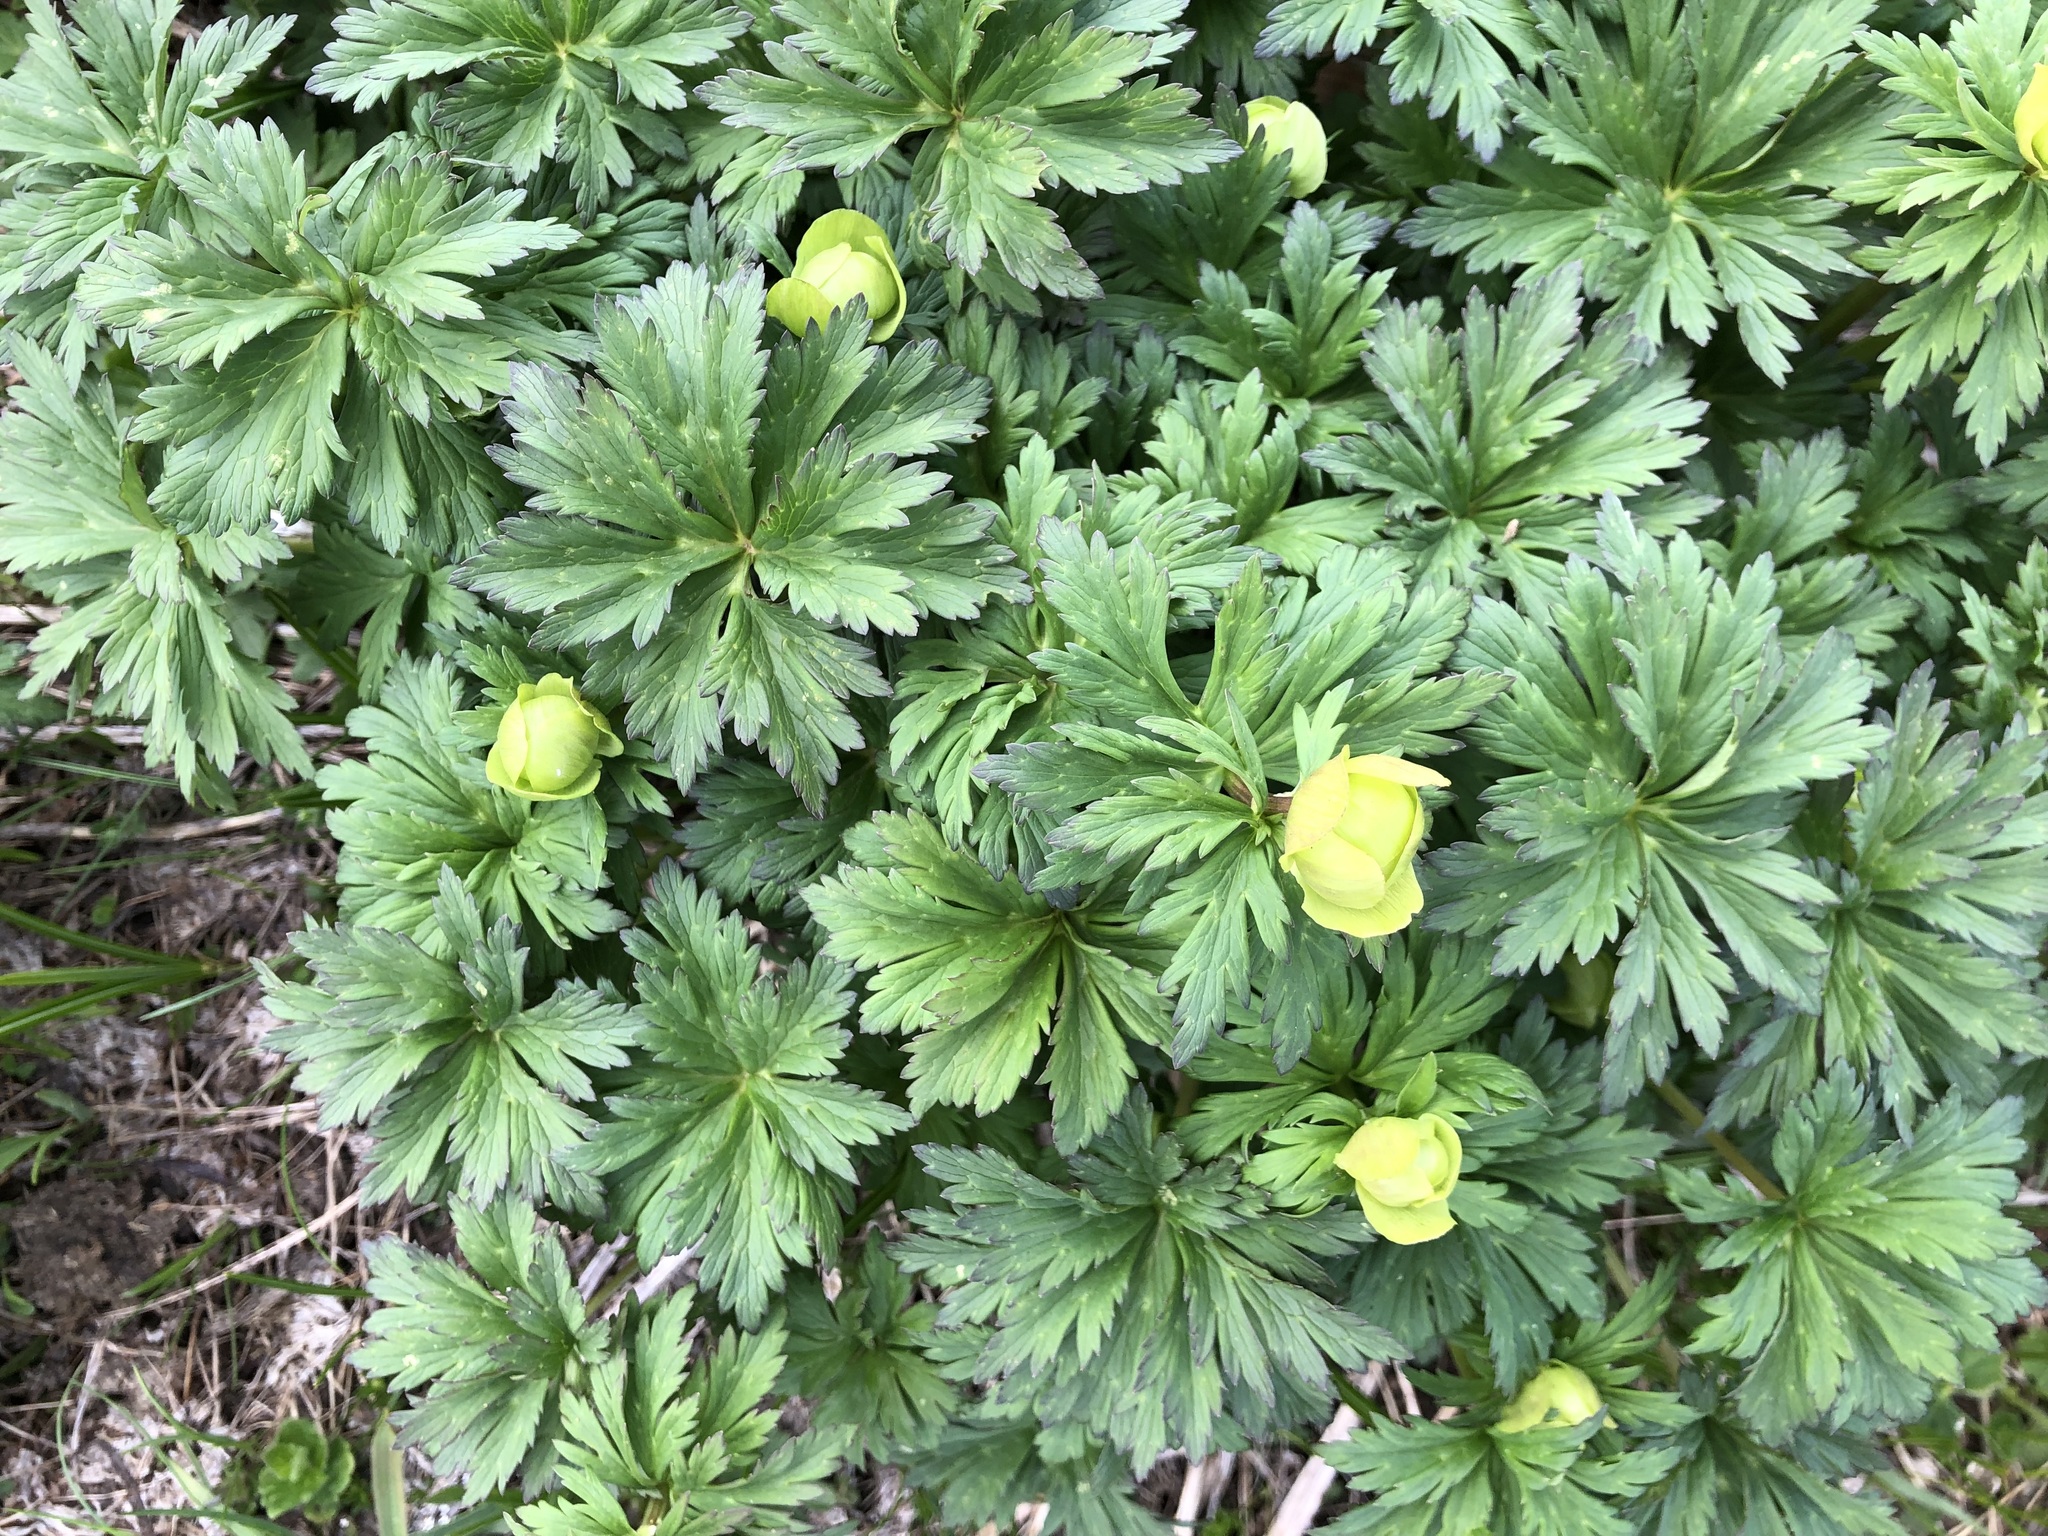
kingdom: Plantae
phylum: Tracheophyta
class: Magnoliopsida
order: Ranunculales
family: Ranunculaceae
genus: Trollius
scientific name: Trollius europaeus
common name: European globeflower
